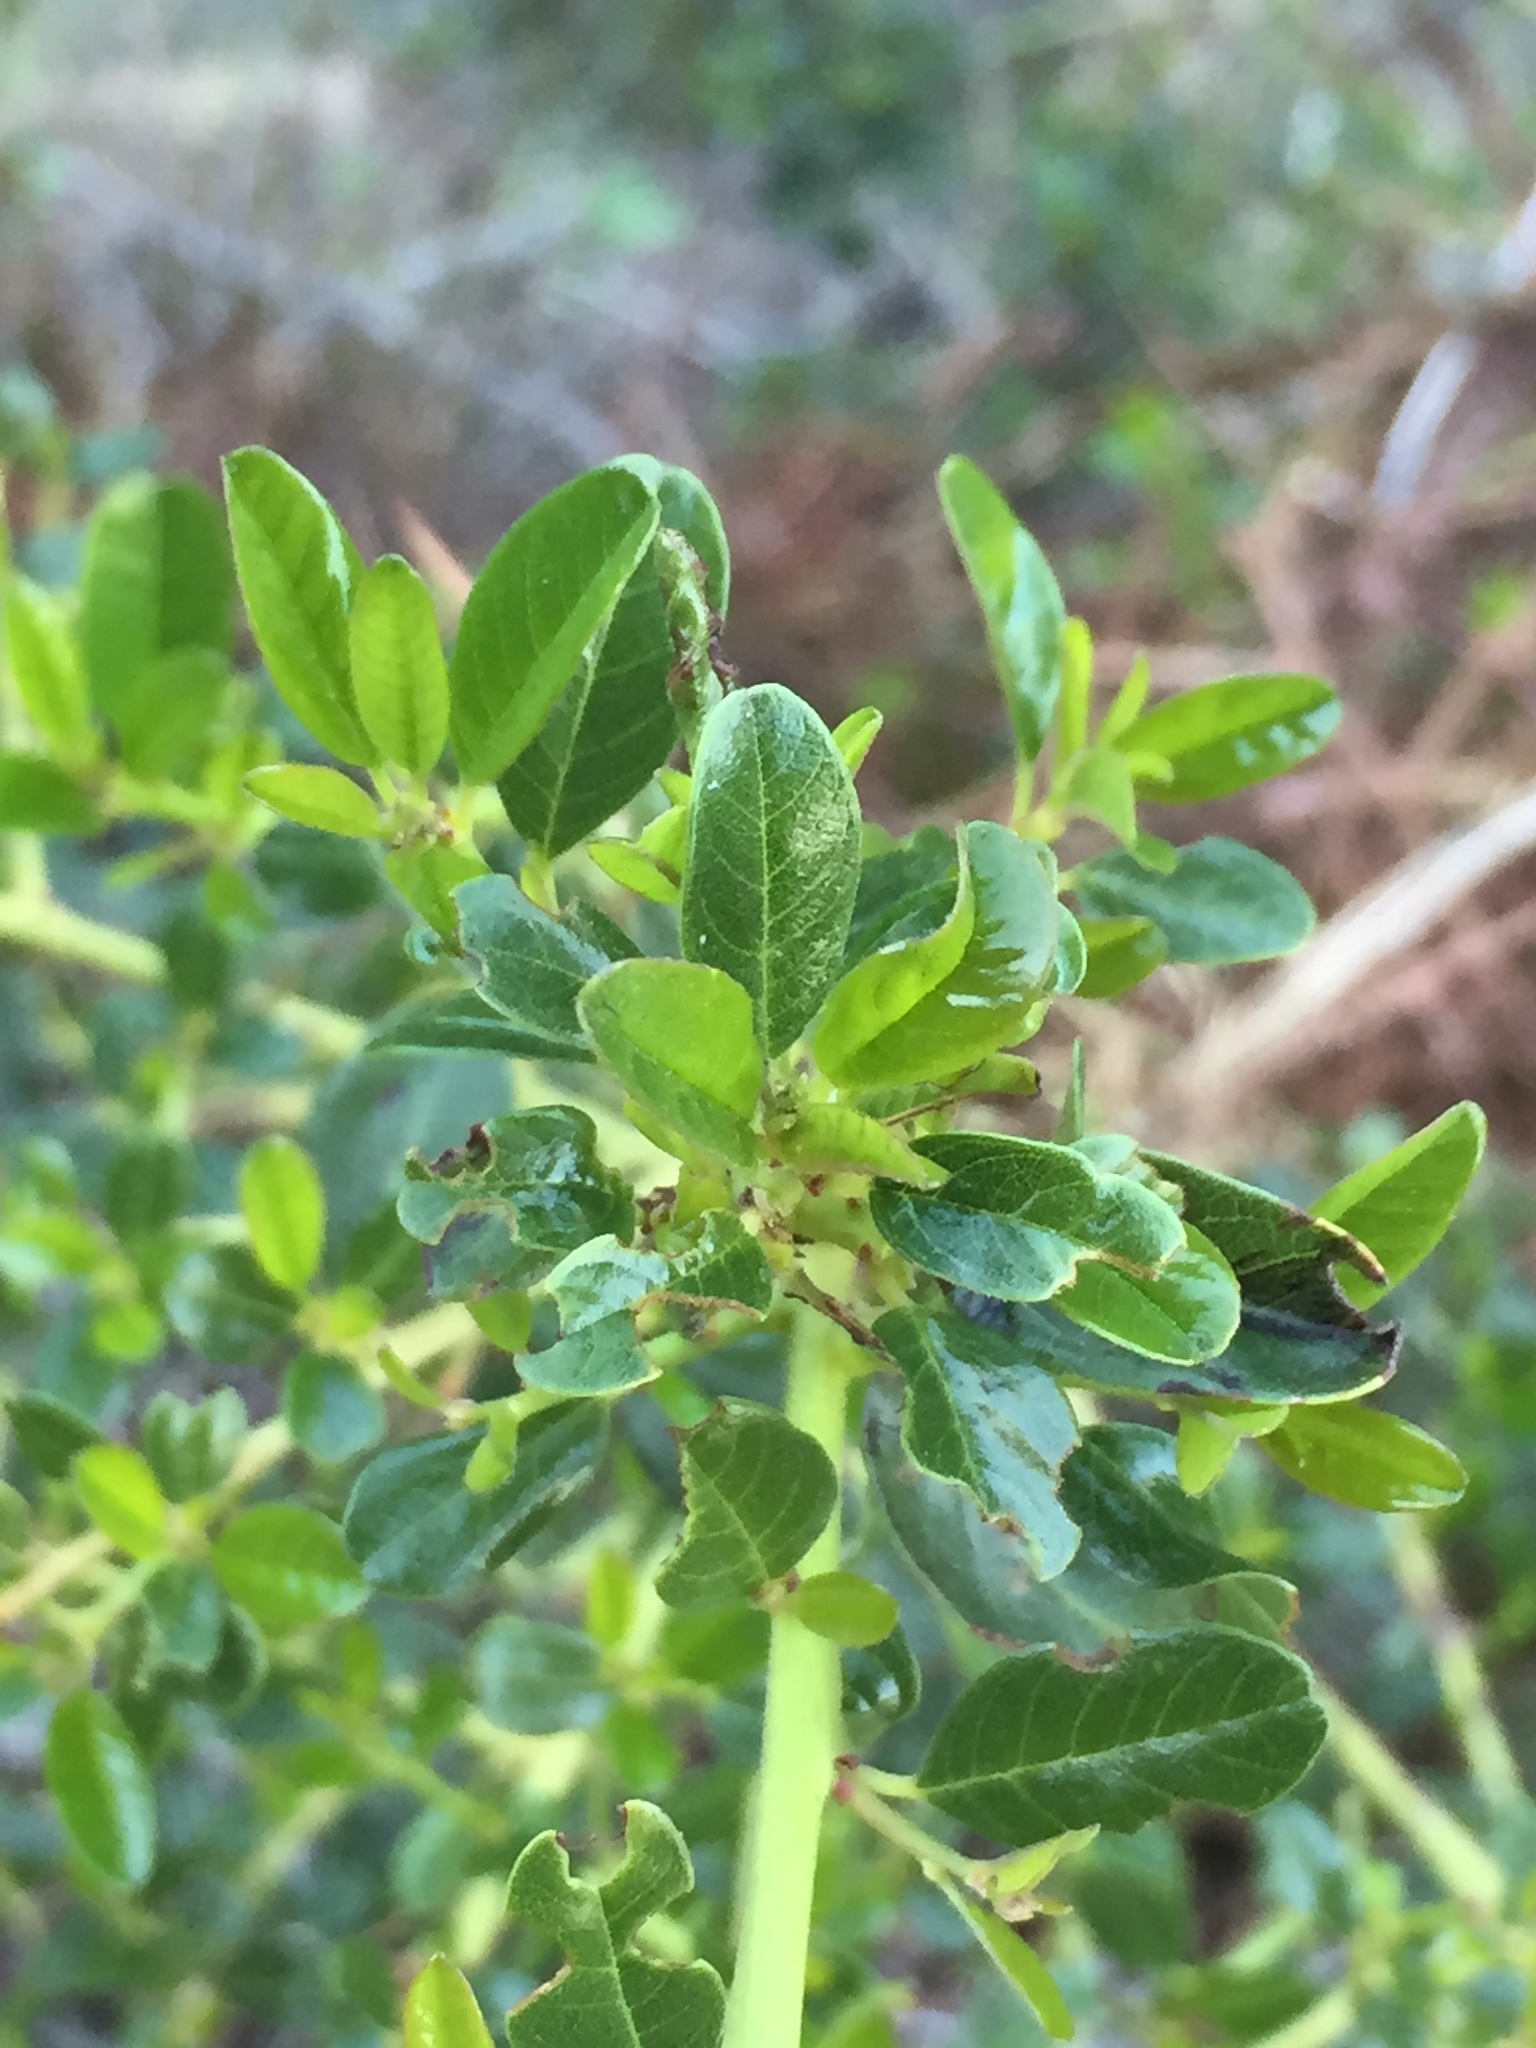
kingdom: Plantae
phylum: Tracheophyta
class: Magnoliopsida
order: Rosales
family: Rhamnaceae
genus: Ceanothus
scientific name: Ceanothus spinosus
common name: Greenbark whitethorn
